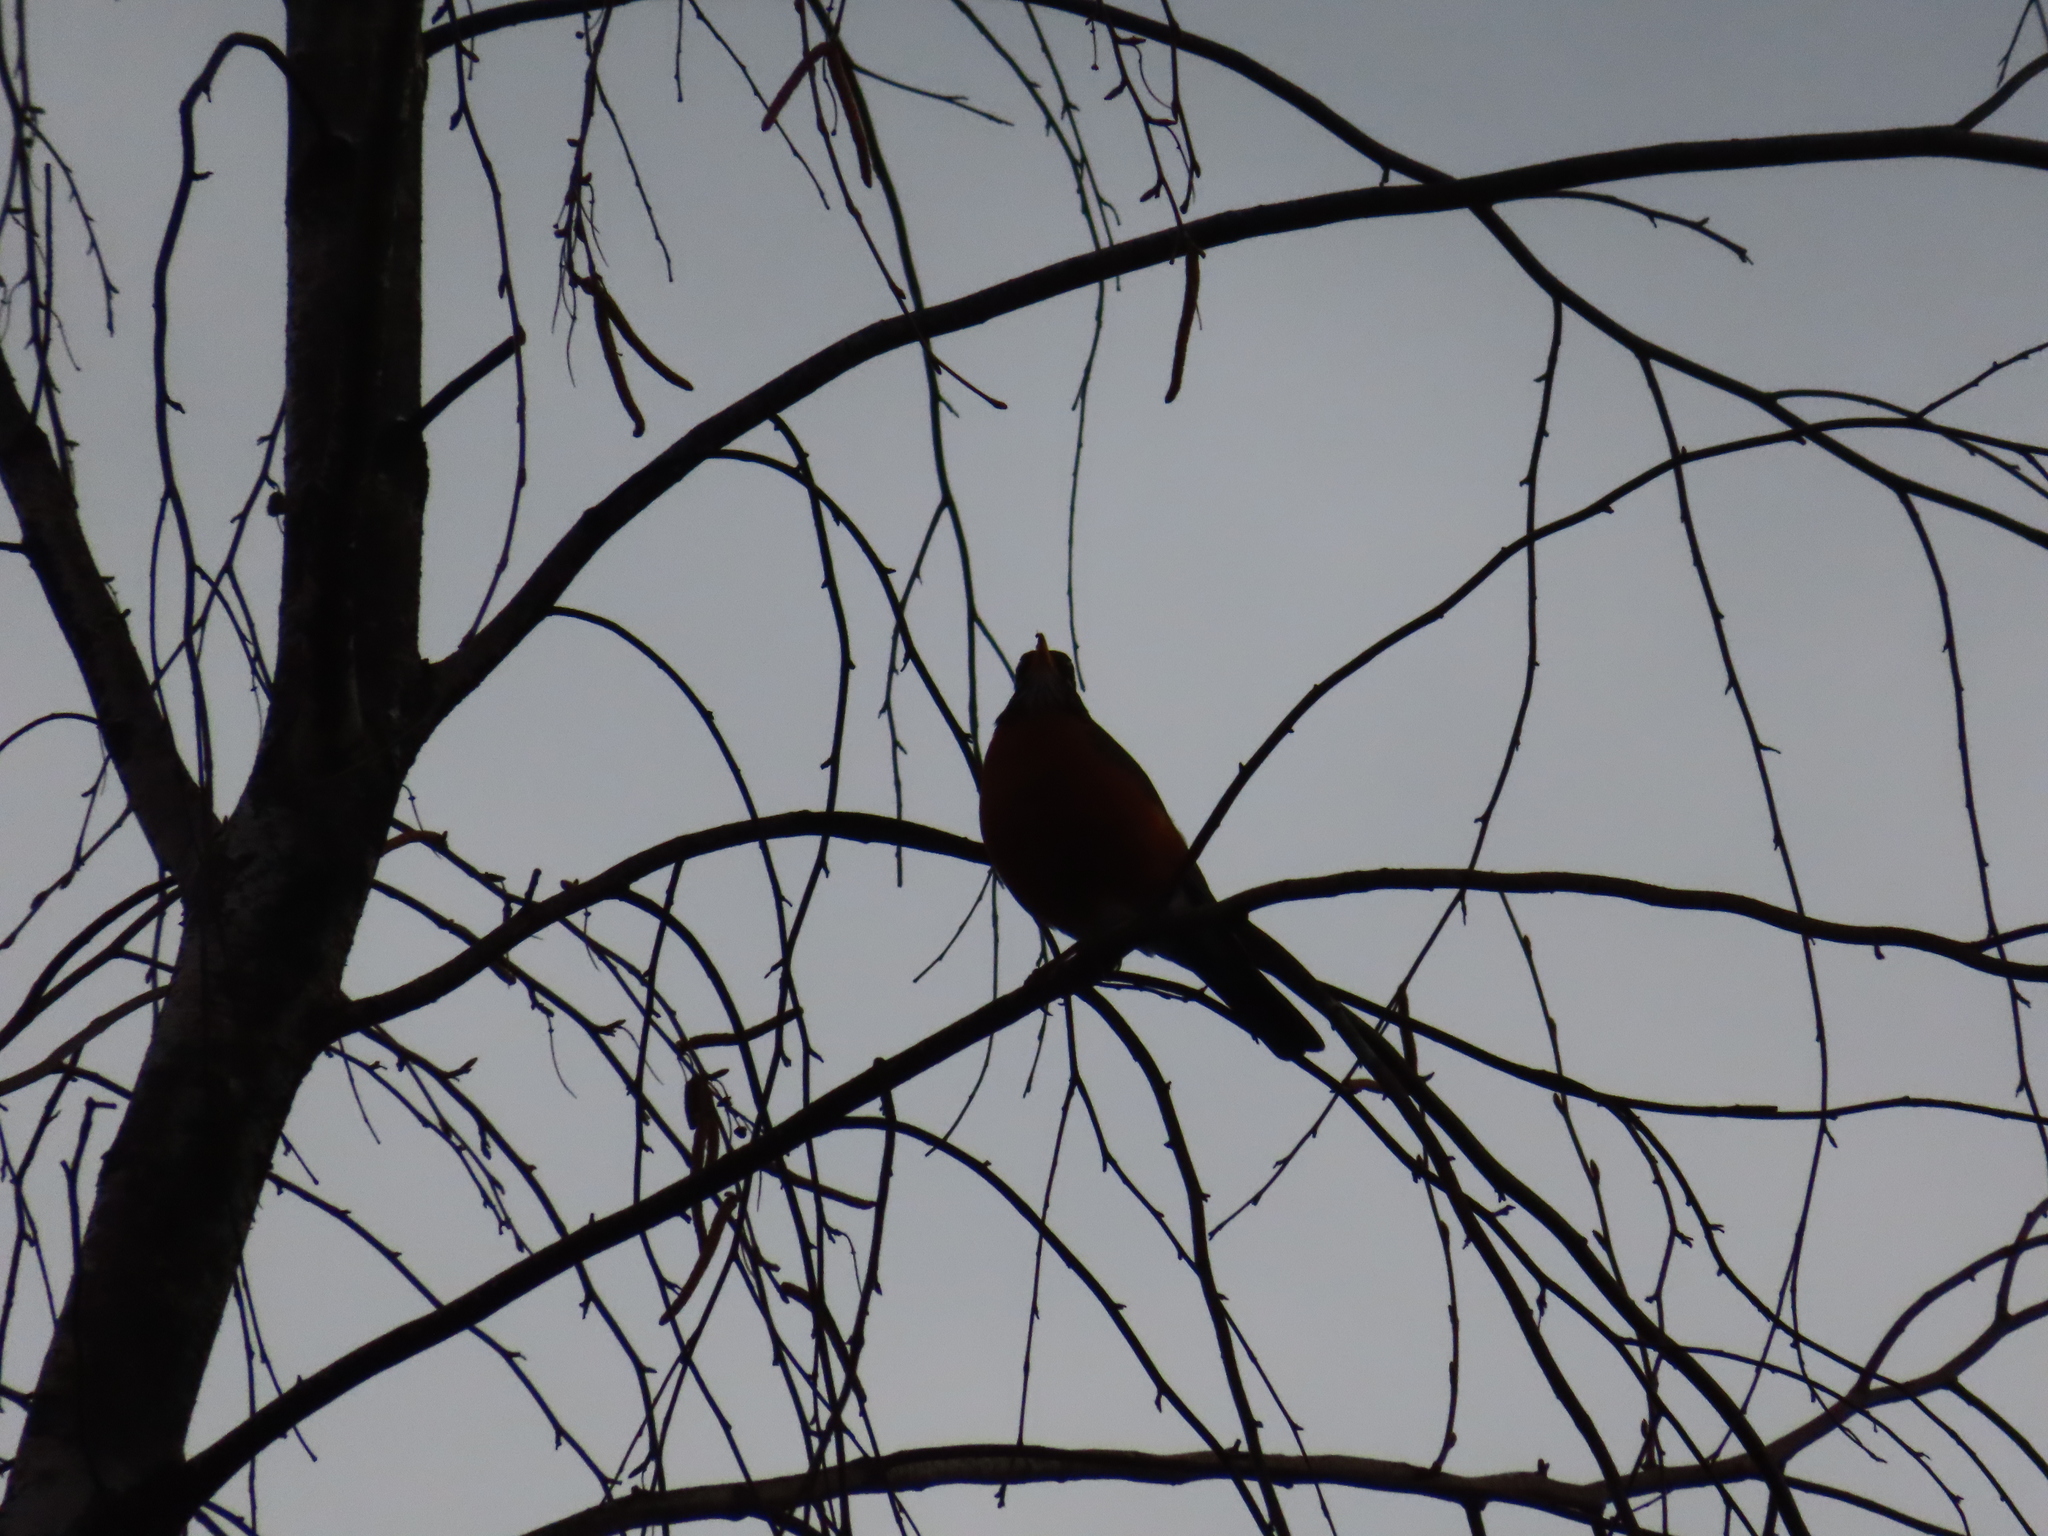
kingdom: Animalia
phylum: Chordata
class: Aves
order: Passeriformes
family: Turdidae
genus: Turdus
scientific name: Turdus migratorius
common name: American robin
